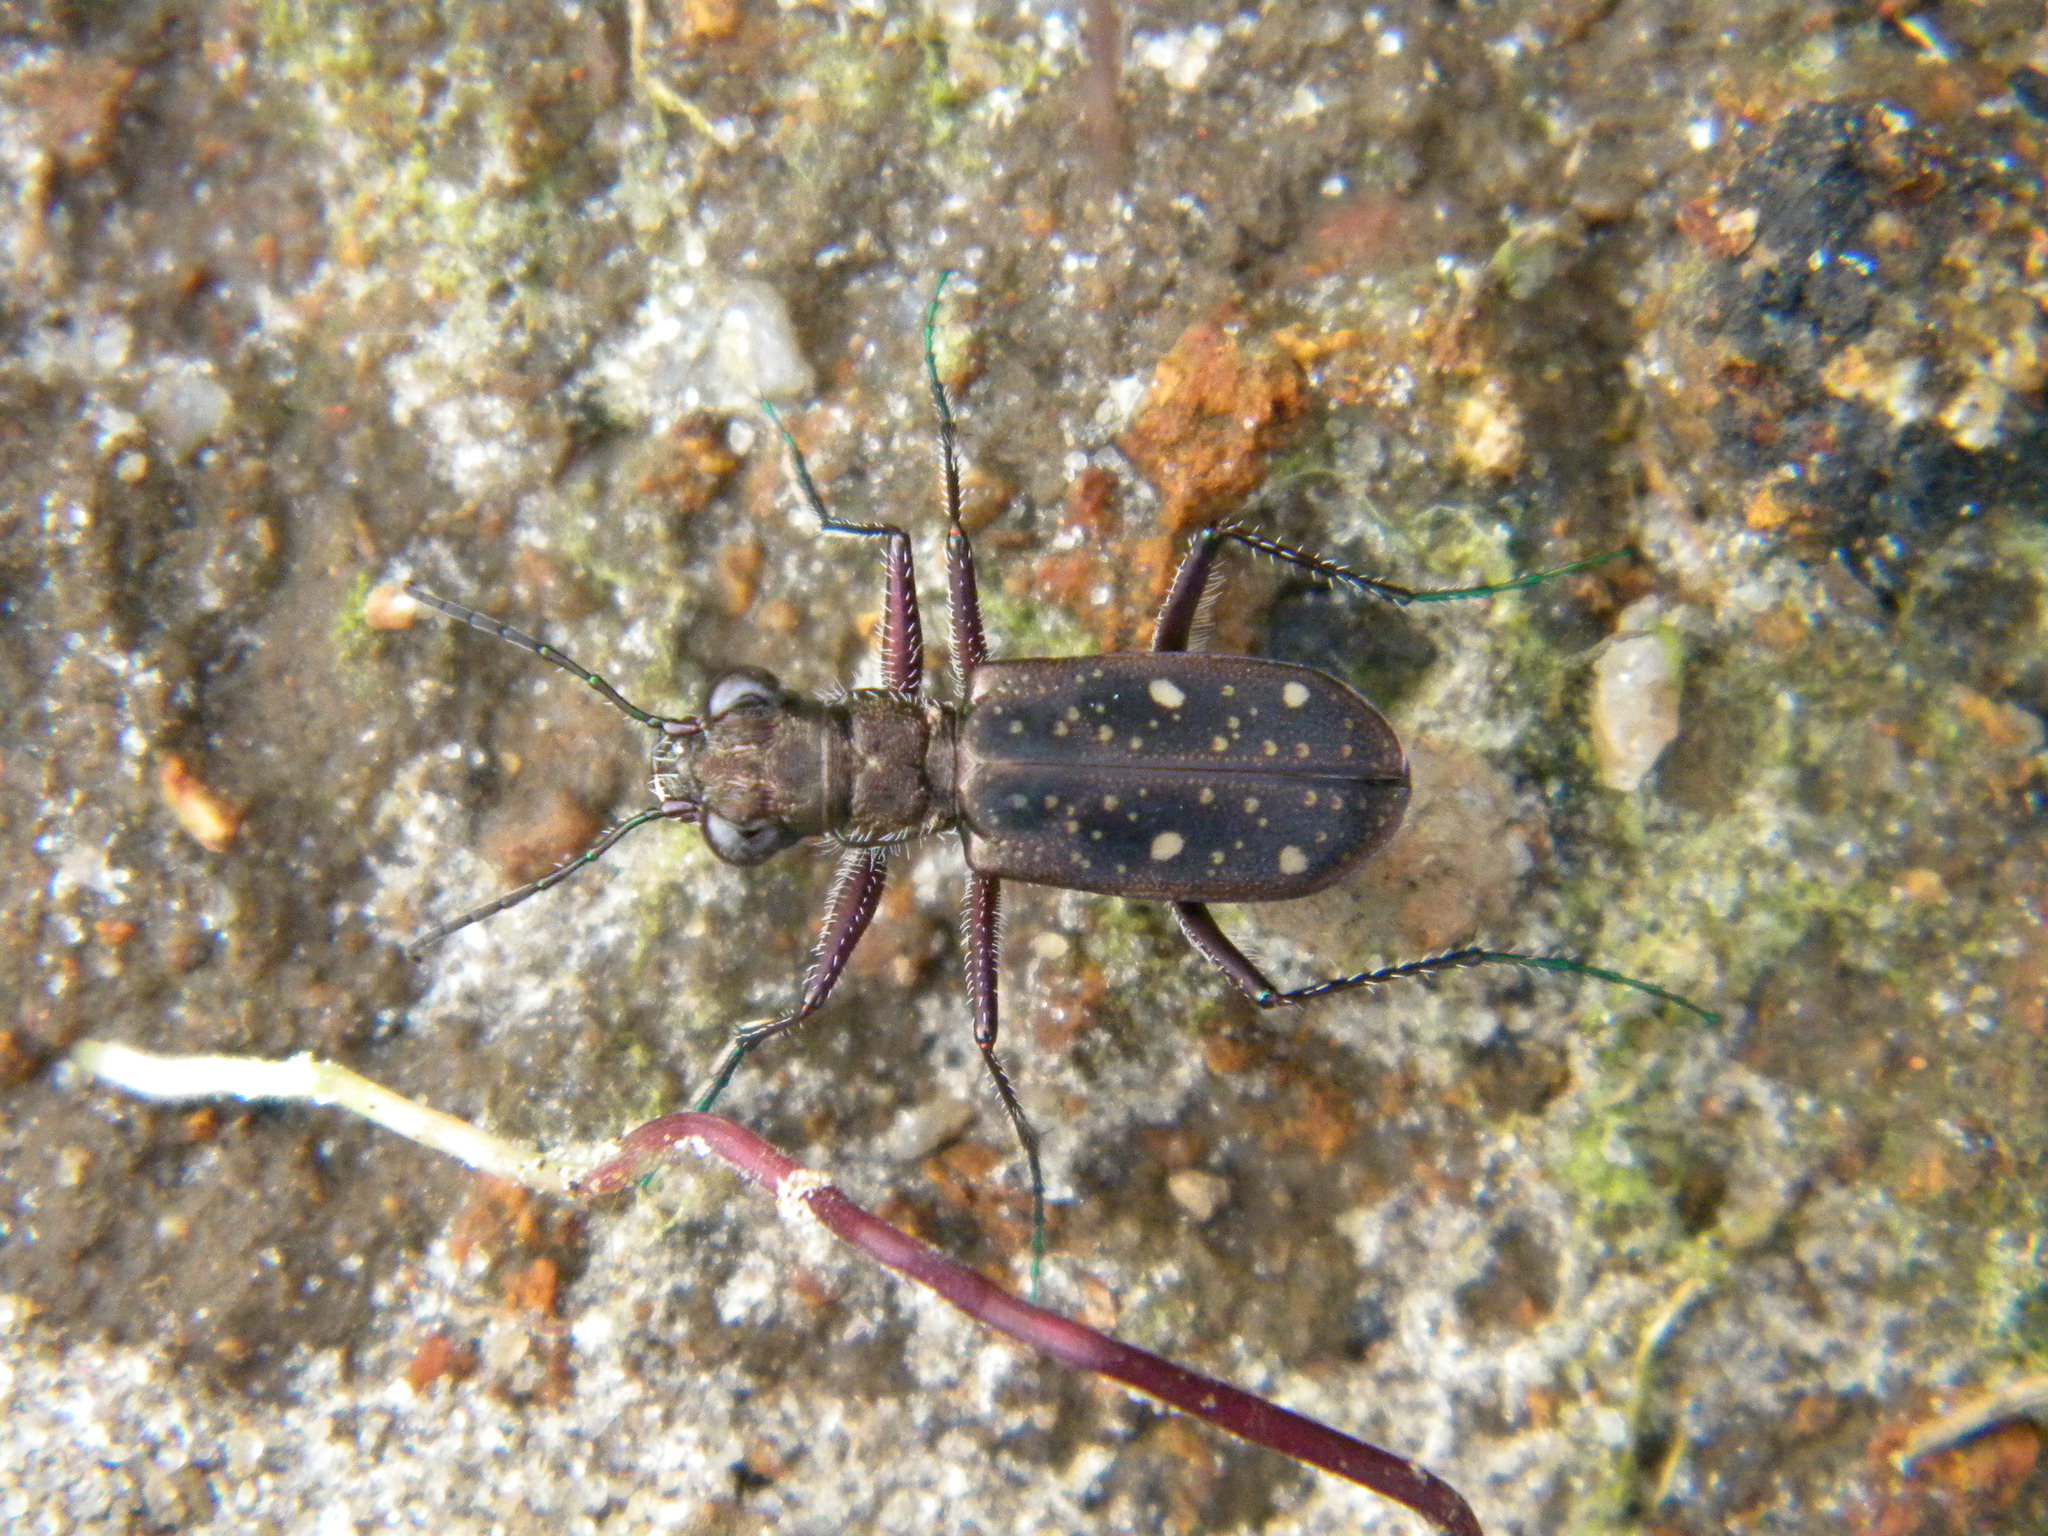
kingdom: Animalia
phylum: Arthropoda
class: Insecta
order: Coleoptera
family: Carabidae
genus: Jansenia
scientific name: Jansenia tetragrammica
